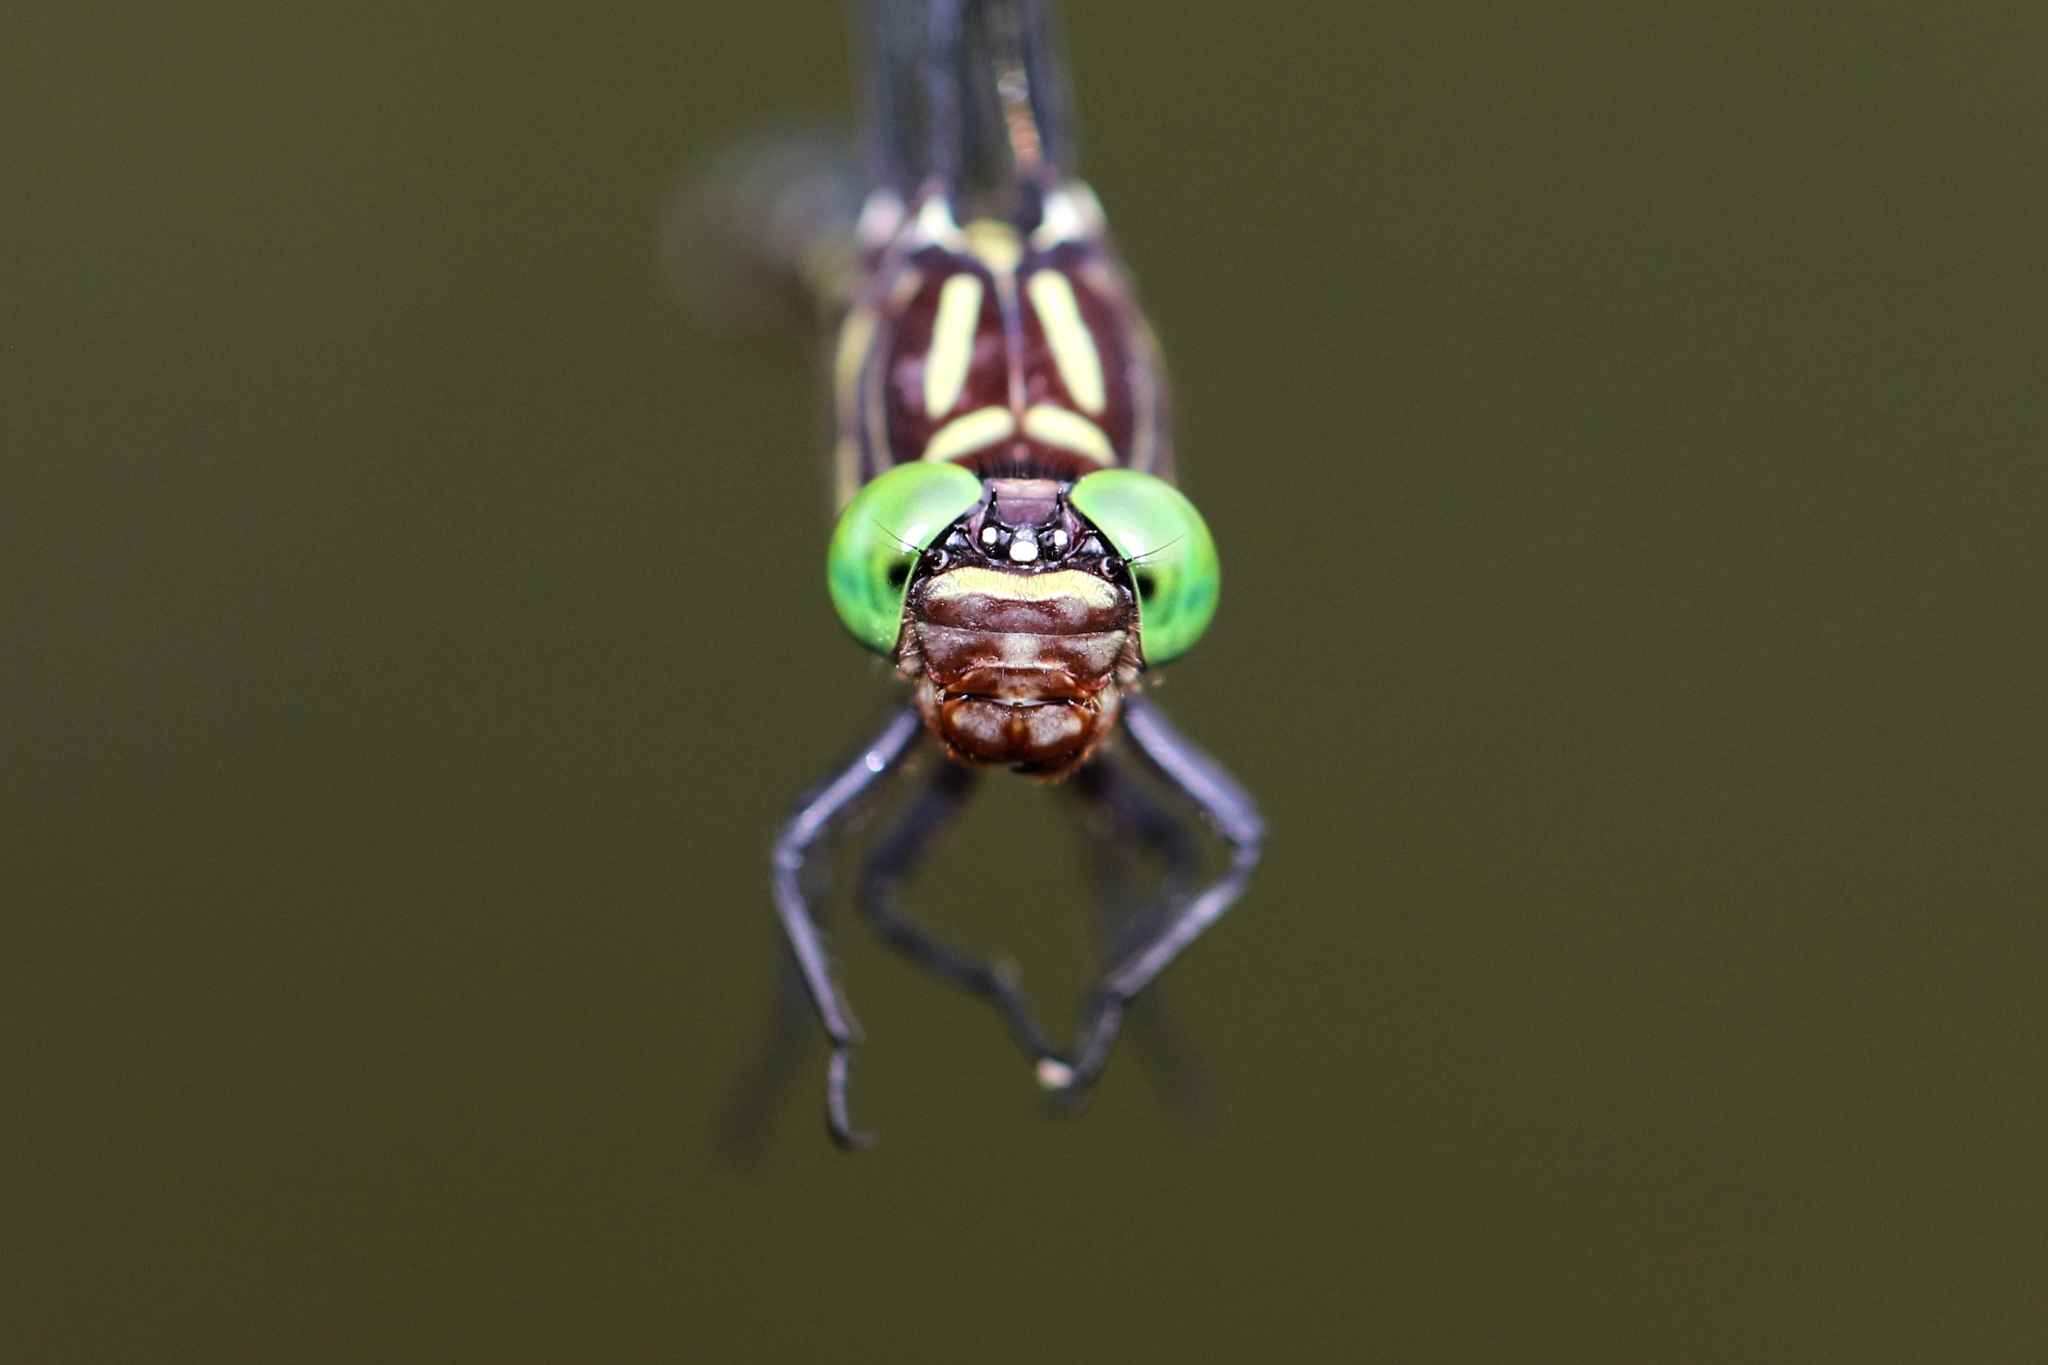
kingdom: Animalia
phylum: Arthropoda
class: Insecta
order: Odonata
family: Gomphidae
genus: Stylurus
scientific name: Stylurus spiniceps
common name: Arrow clubtail
